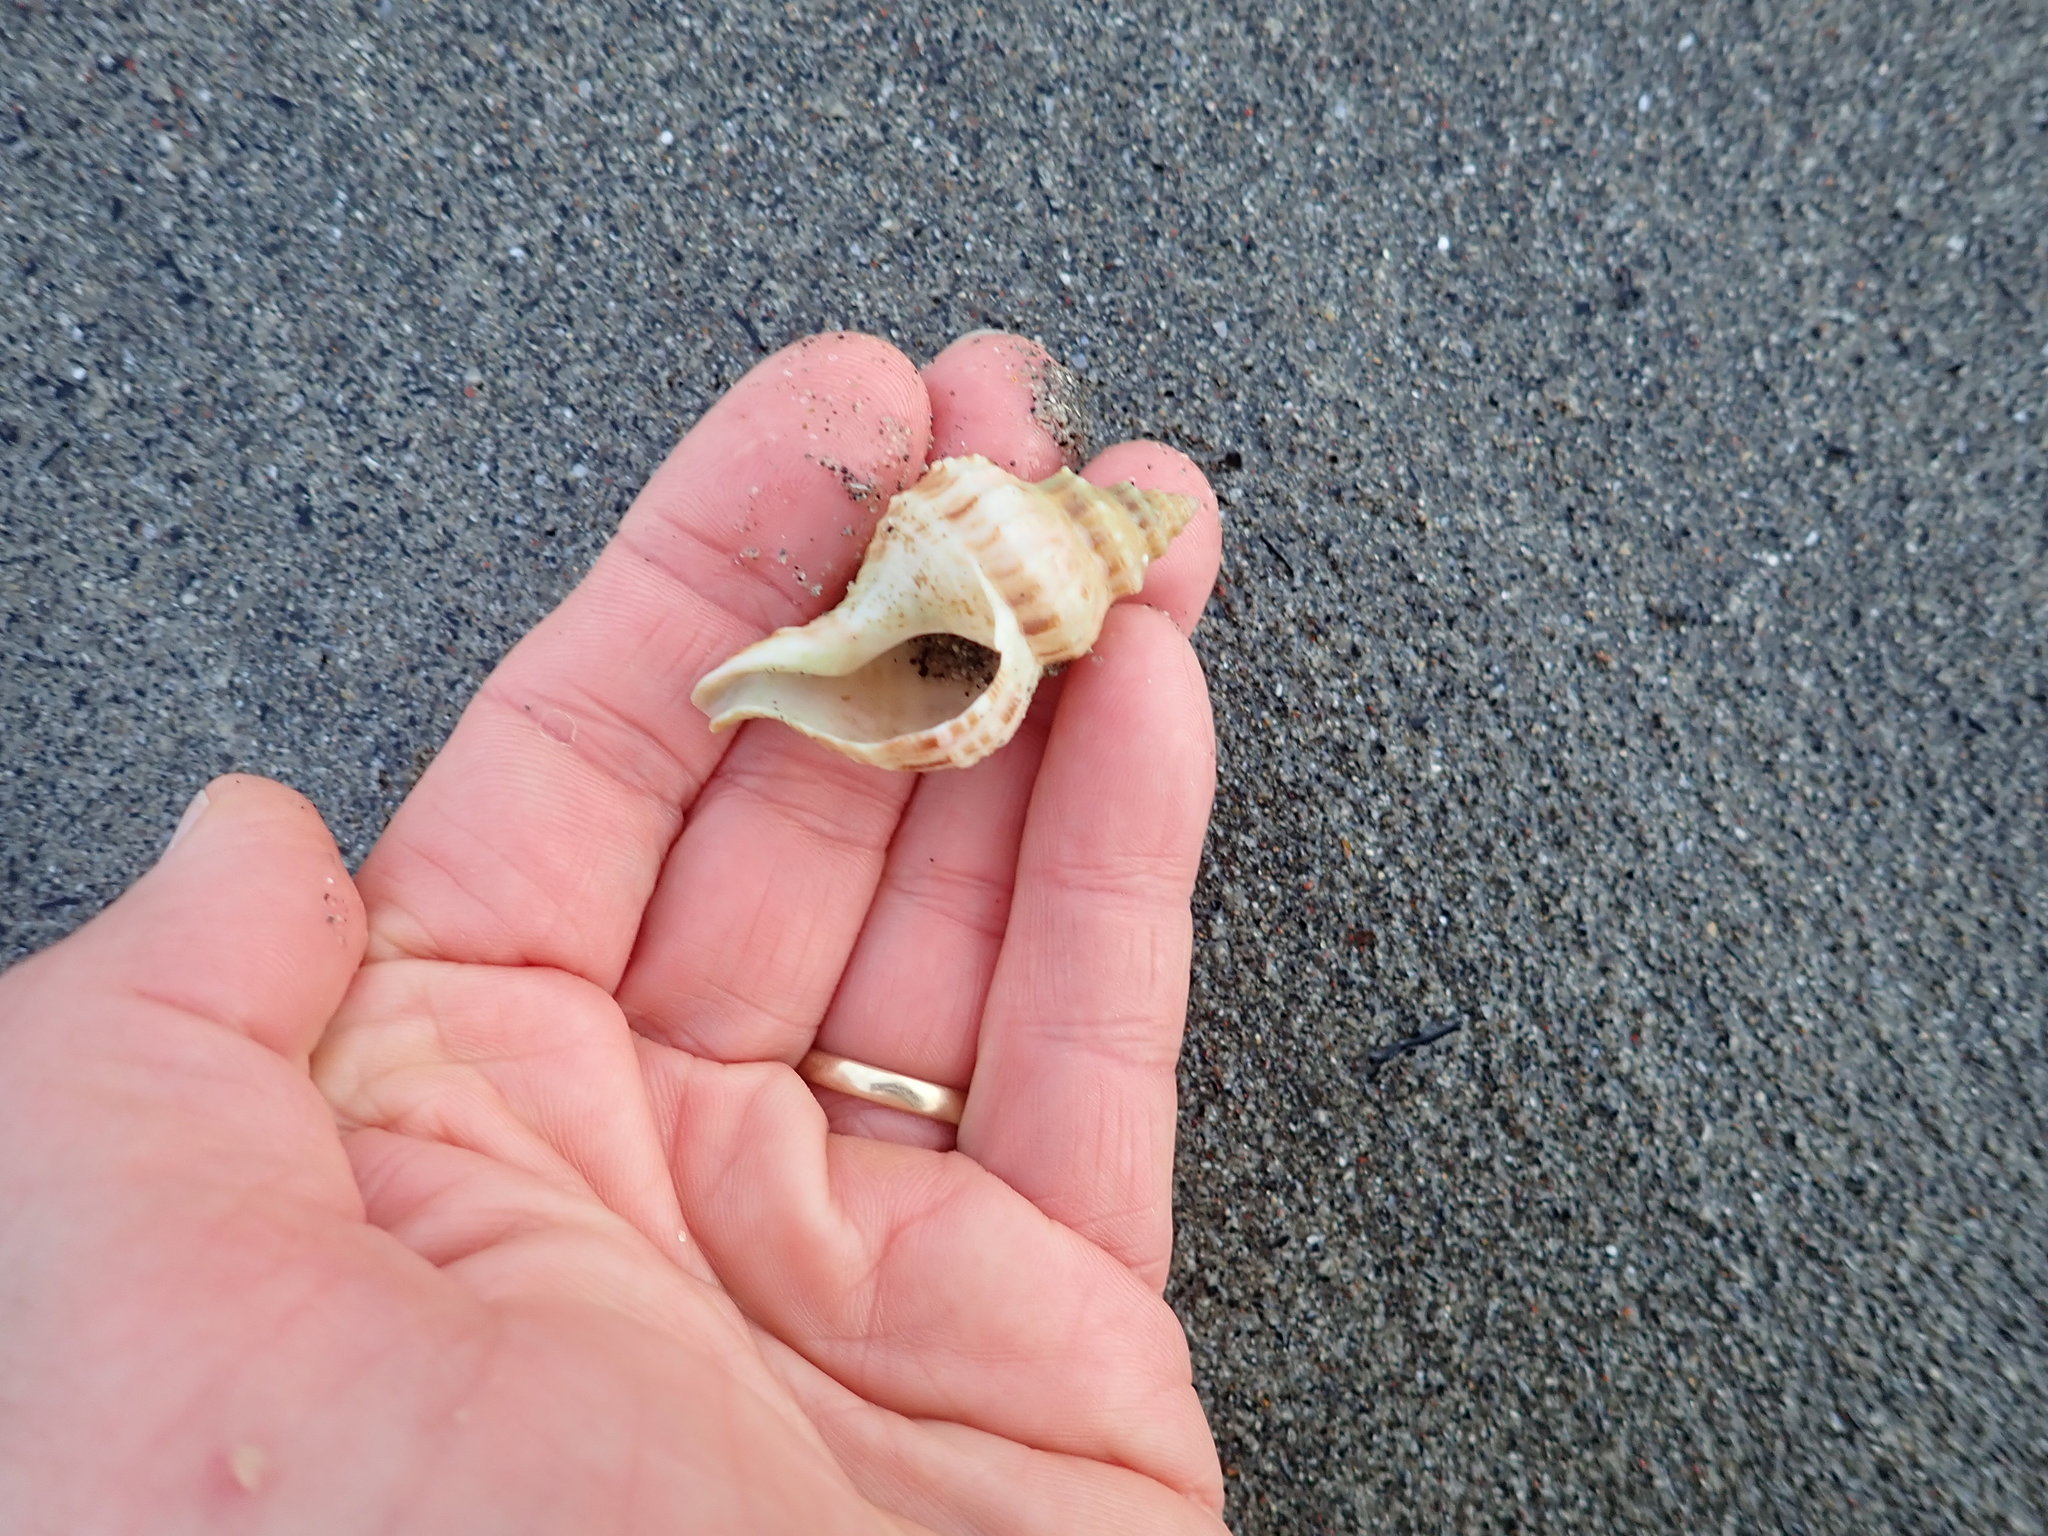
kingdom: Animalia
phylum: Mollusca
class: Gastropoda
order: Neogastropoda
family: Prosiphonidae
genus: Austrofusus
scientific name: Austrofusus glans
